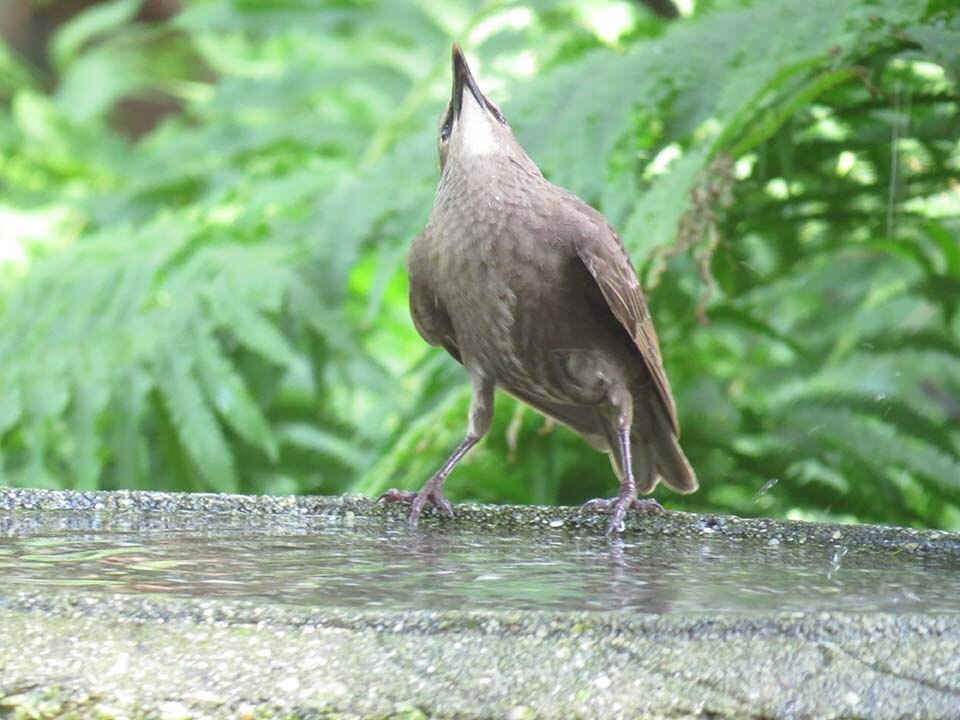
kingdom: Animalia
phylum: Chordata
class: Aves
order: Passeriformes
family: Sturnidae
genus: Sturnus
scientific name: Sturnus vulgaris
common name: Common starling
